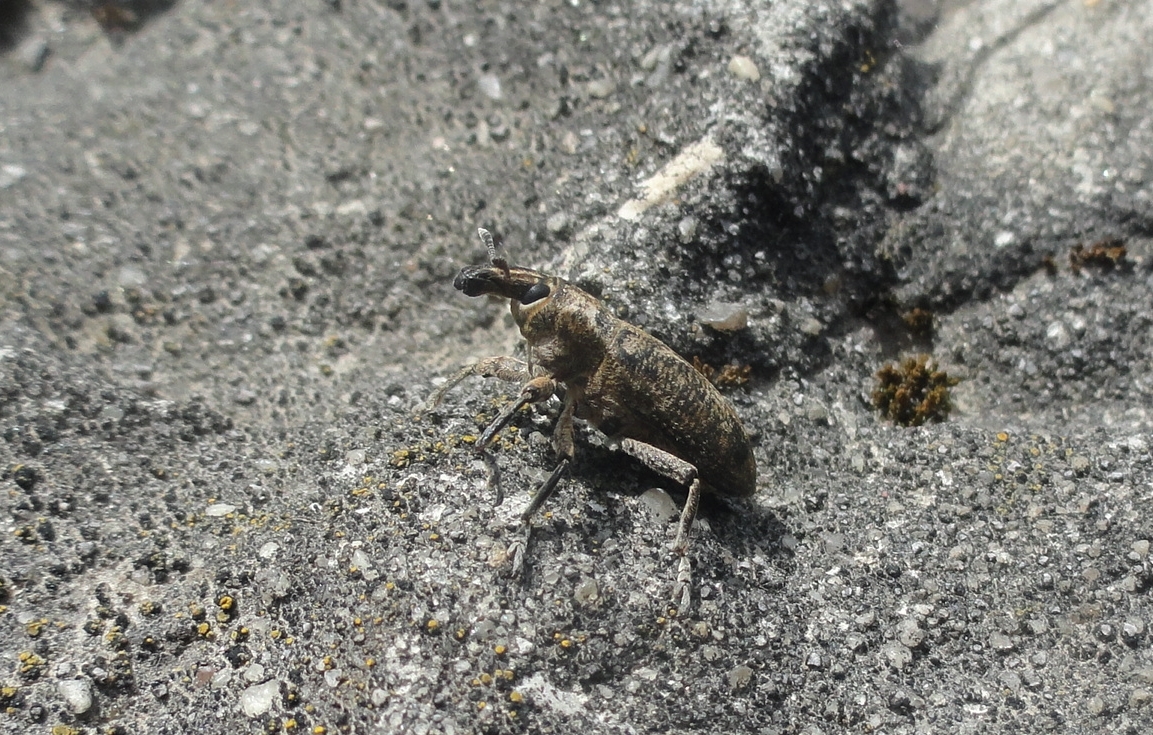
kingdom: Animalia
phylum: Arthropoda
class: Insecta
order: Coleoptera
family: Curculionidae
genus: Cleonis
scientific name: Cleonis pigra
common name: Large thistle weevil
